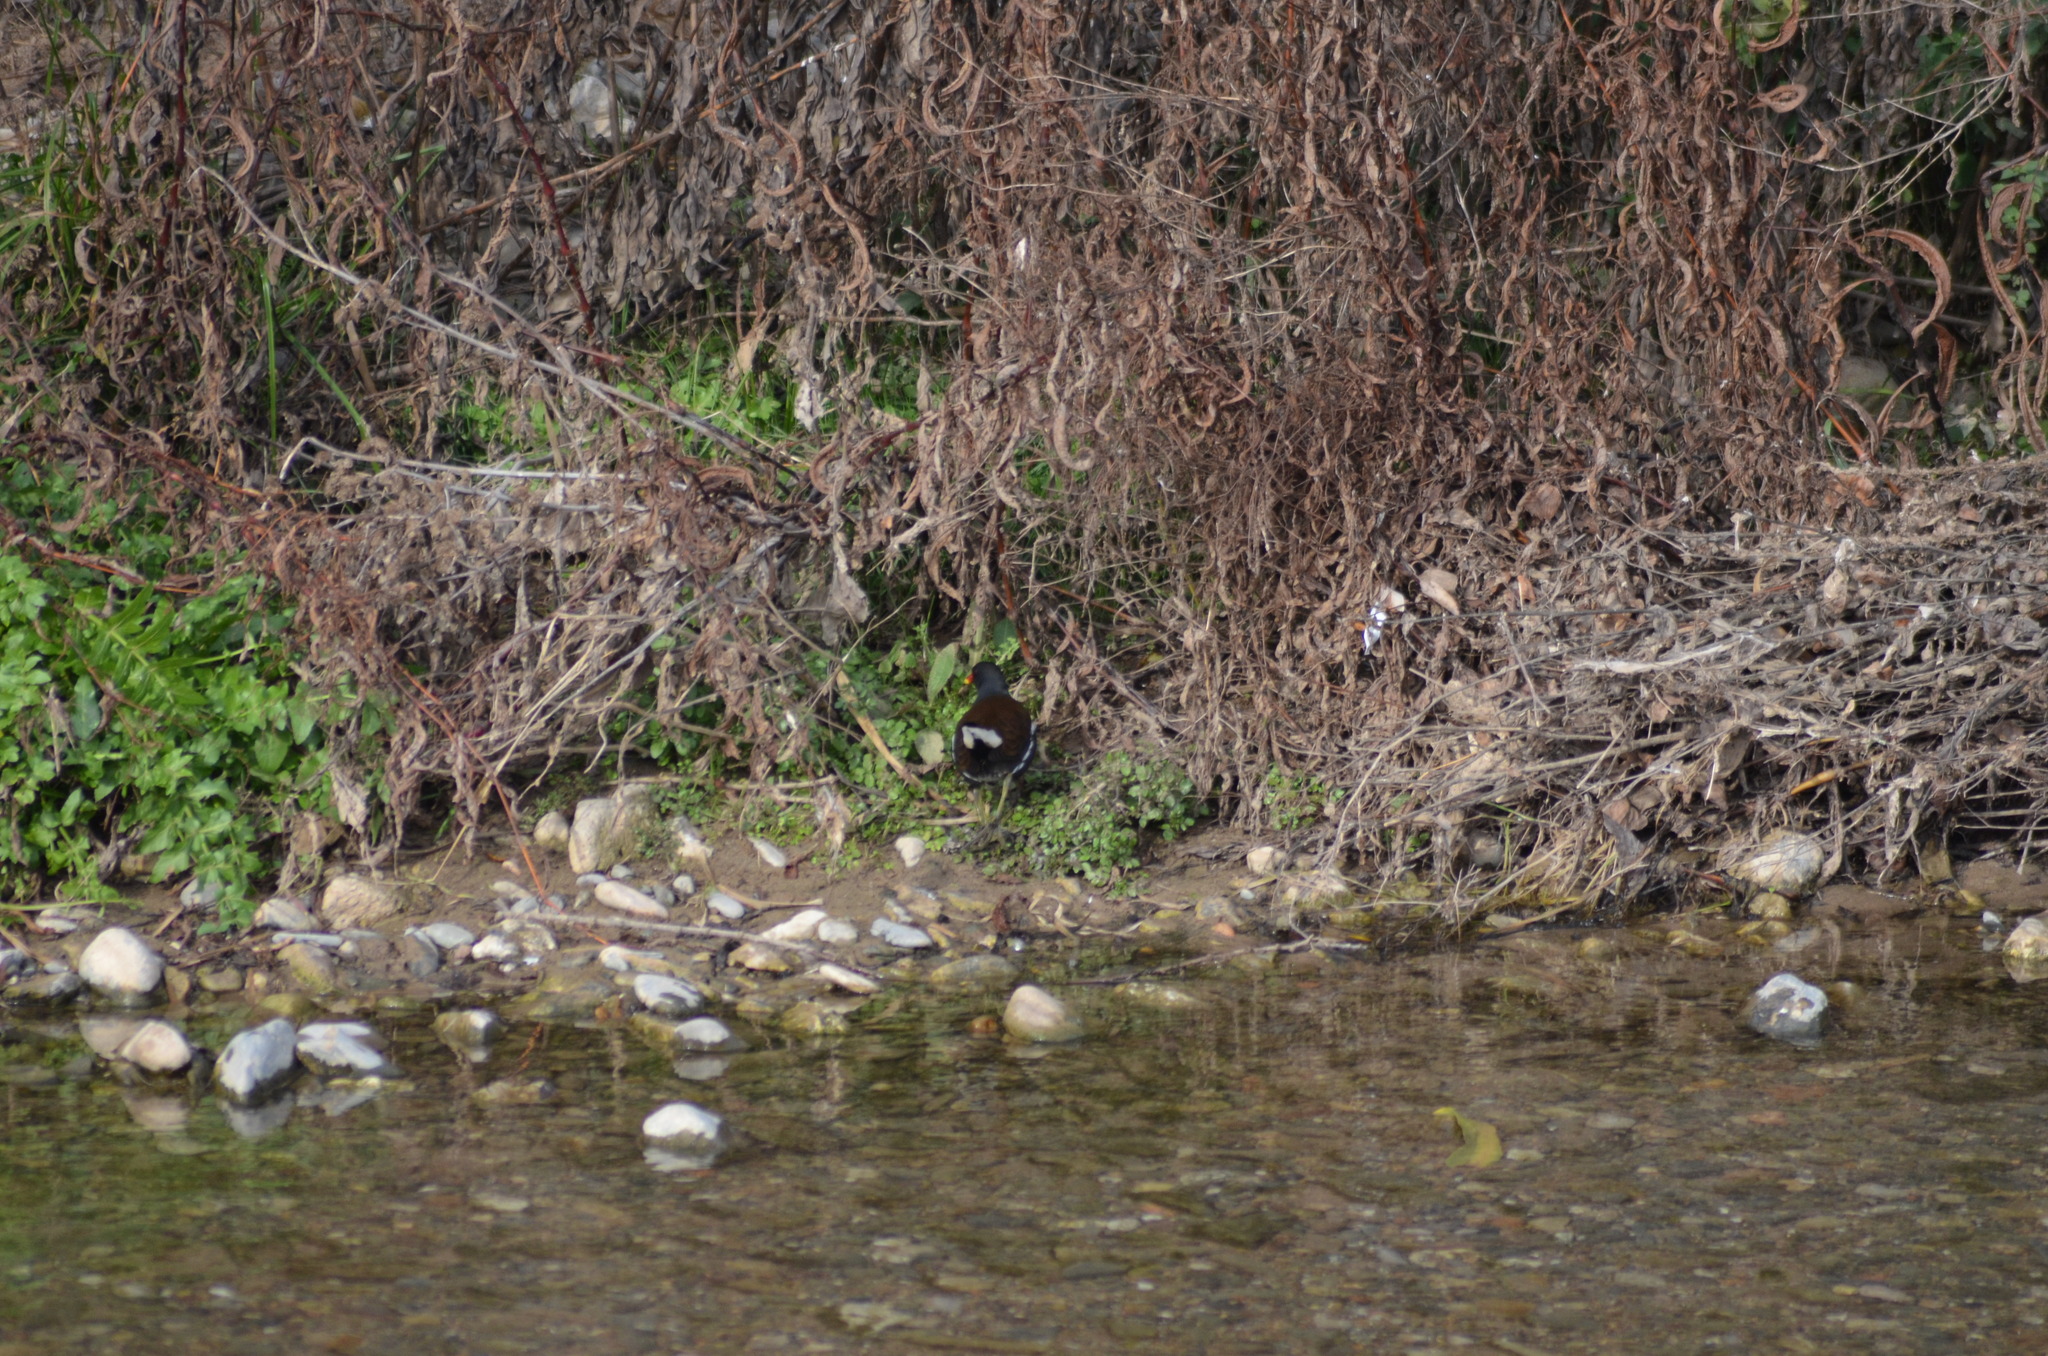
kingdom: Animalia
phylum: Chordata
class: Aves
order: Gruiformes
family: Rallidae
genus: Gallinula
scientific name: Gallinula chloropus
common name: Common moorhen
